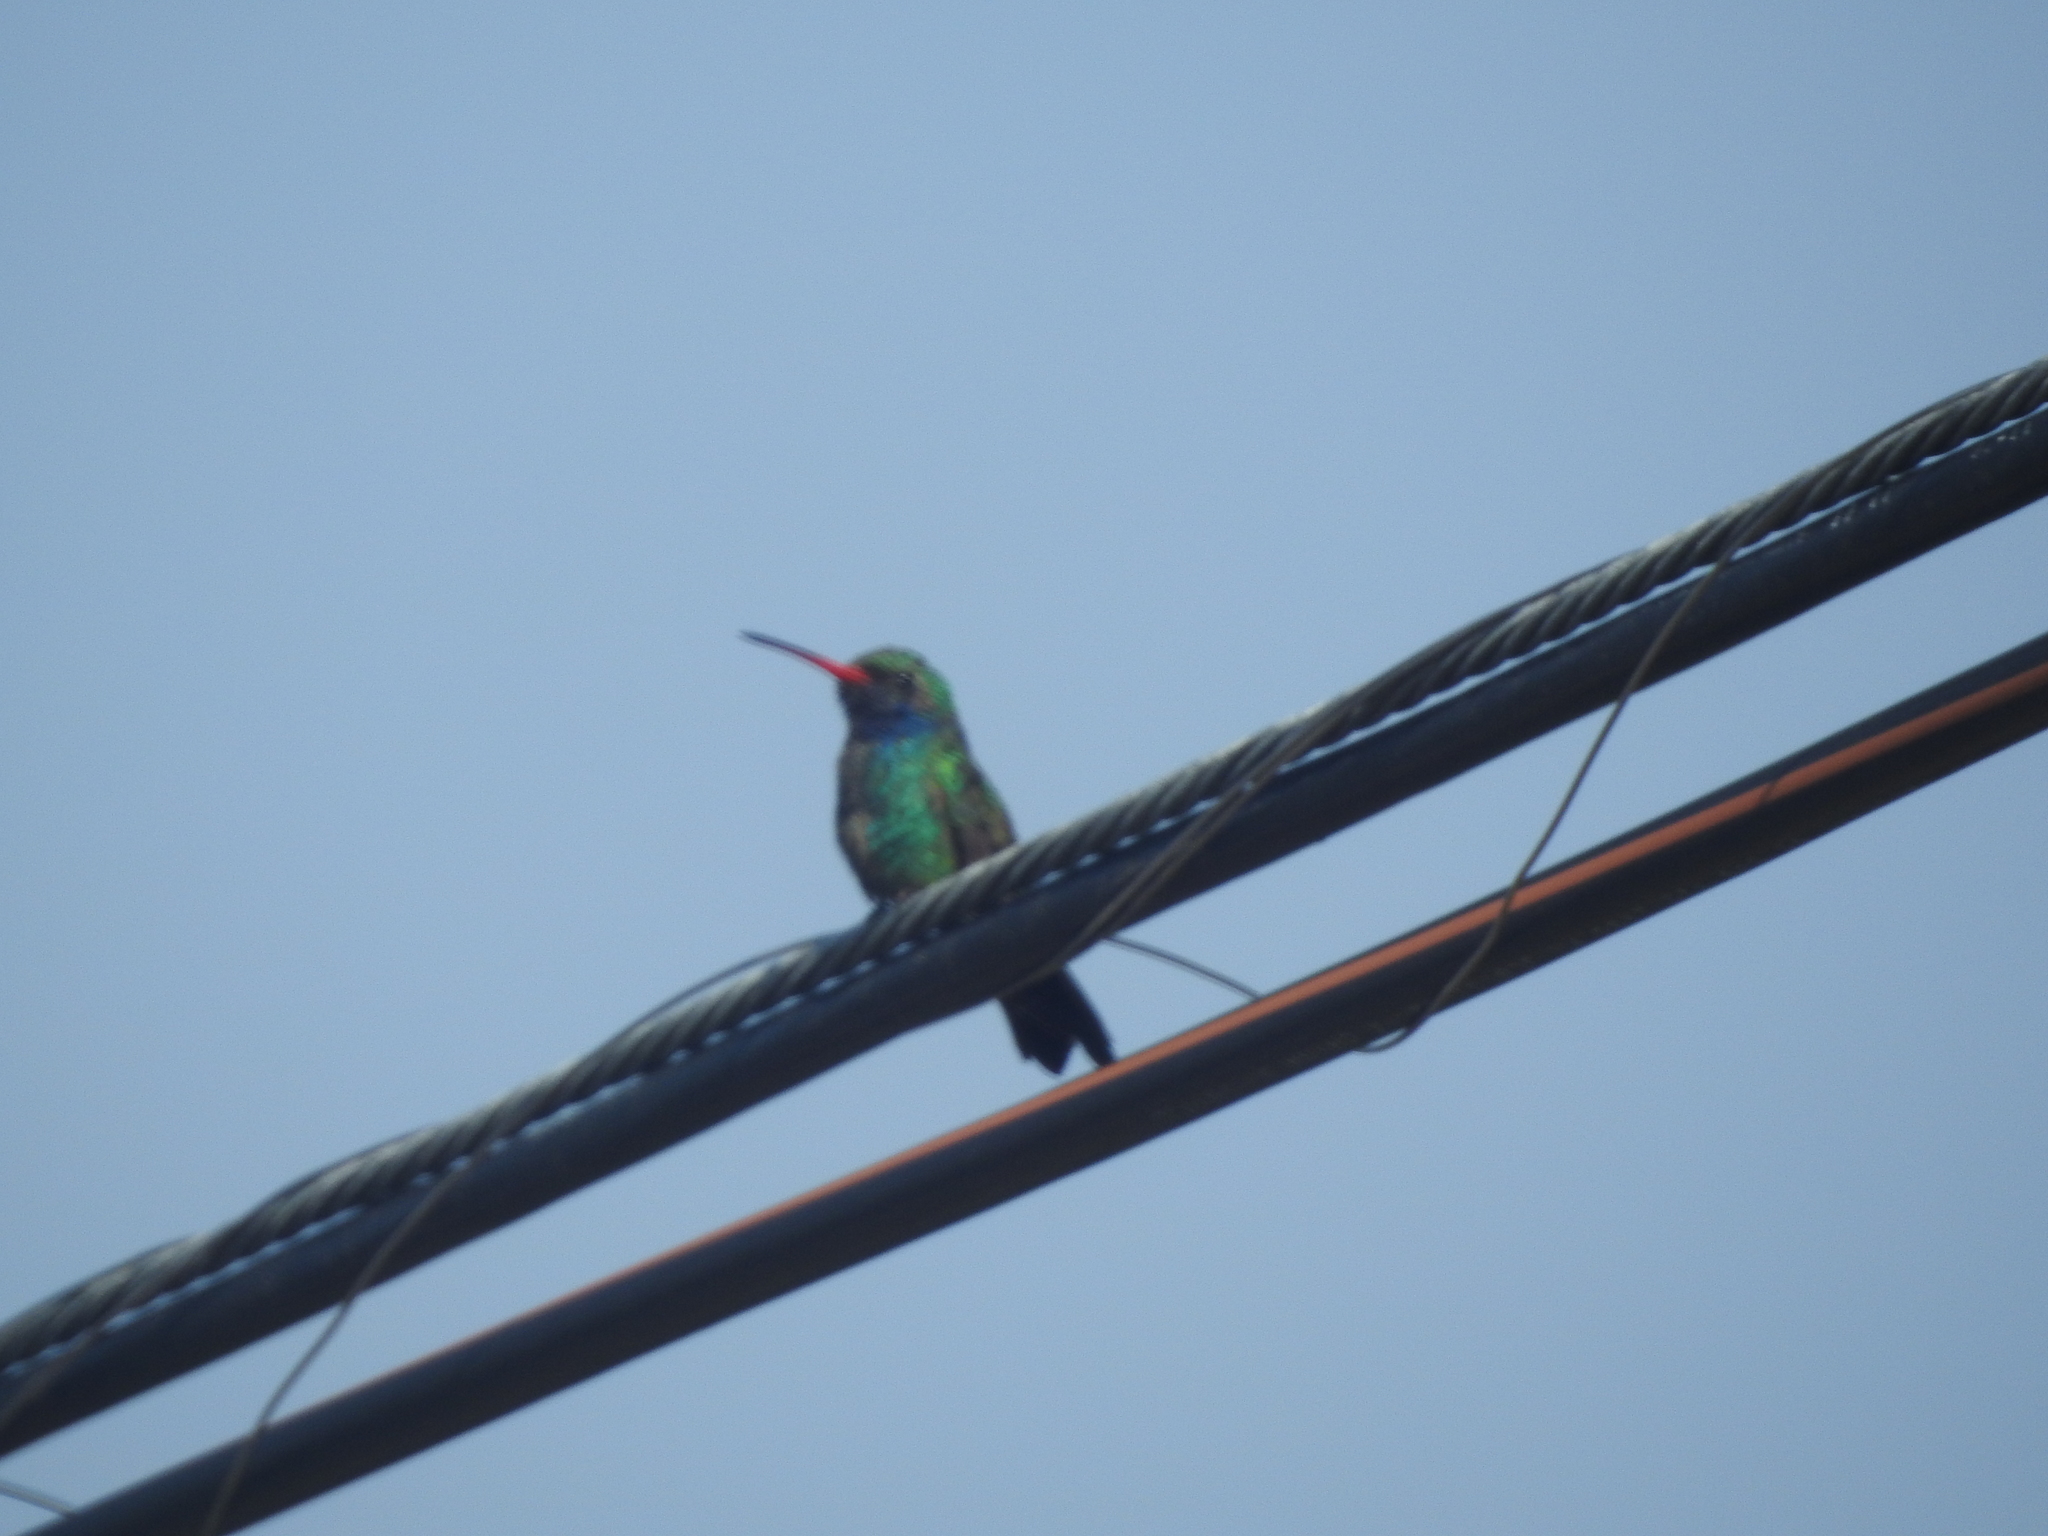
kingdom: Animalia
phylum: Chordata
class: Aves
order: Apodiformes
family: Trochilidae
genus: Cynanthus
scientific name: Cynanthus latirostris
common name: Broad-billed hummingbird
